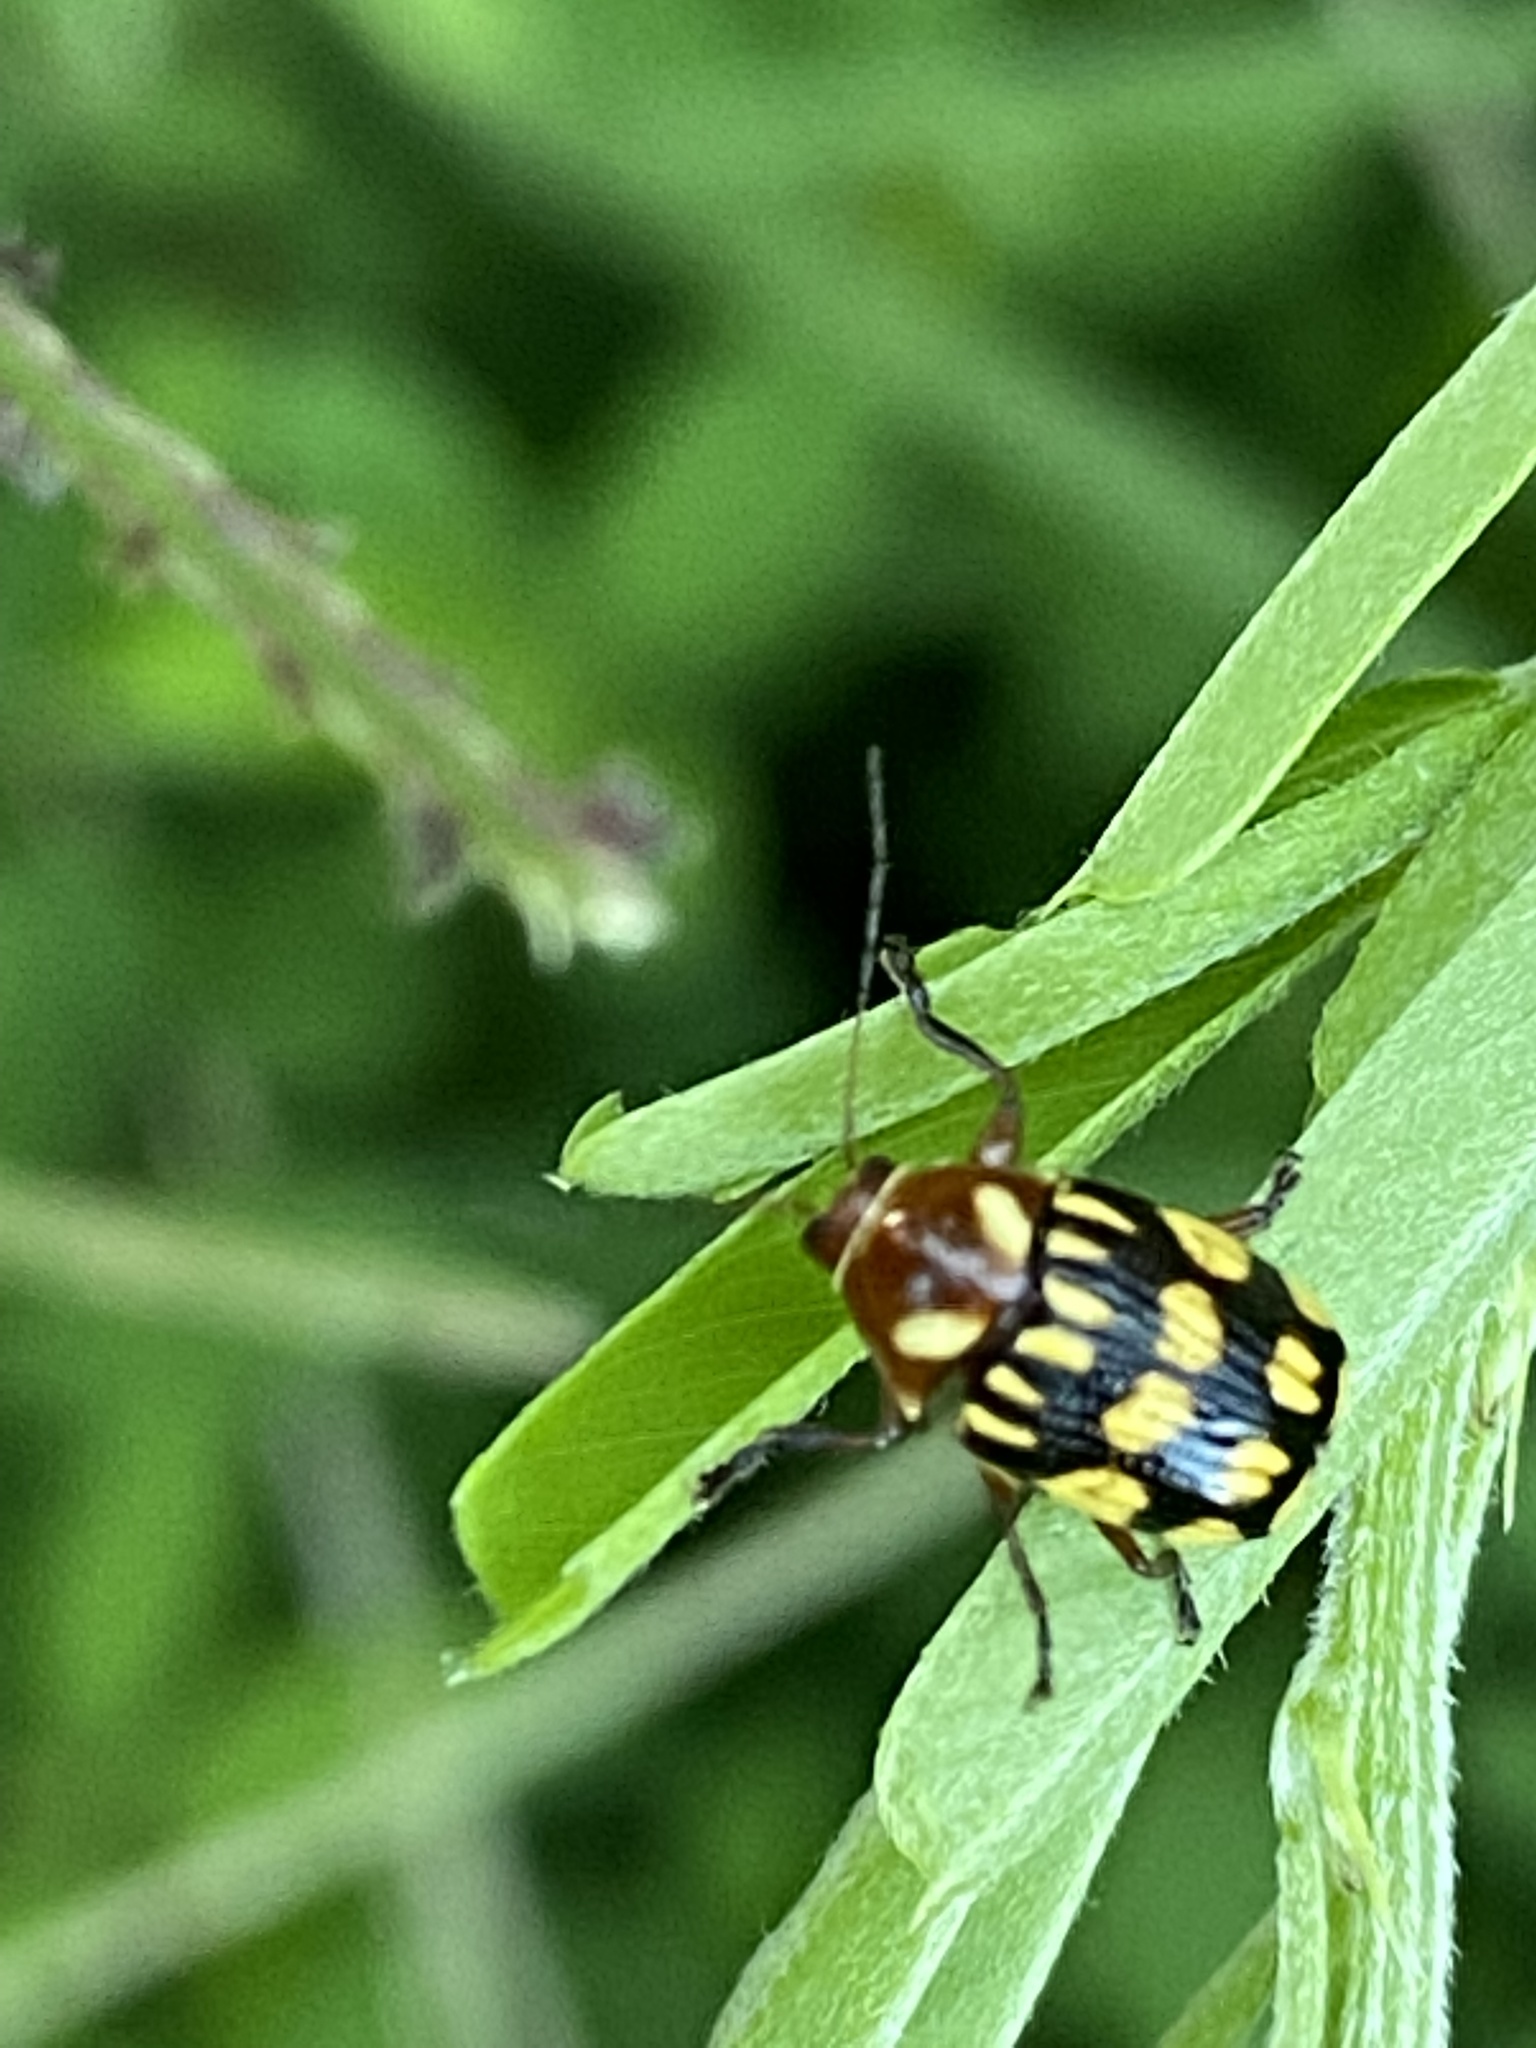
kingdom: Animalia
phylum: Arthropoda
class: Insecta
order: Coleoptera
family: Chrysomelidae
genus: Bassareus
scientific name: Bassareus clathratus
